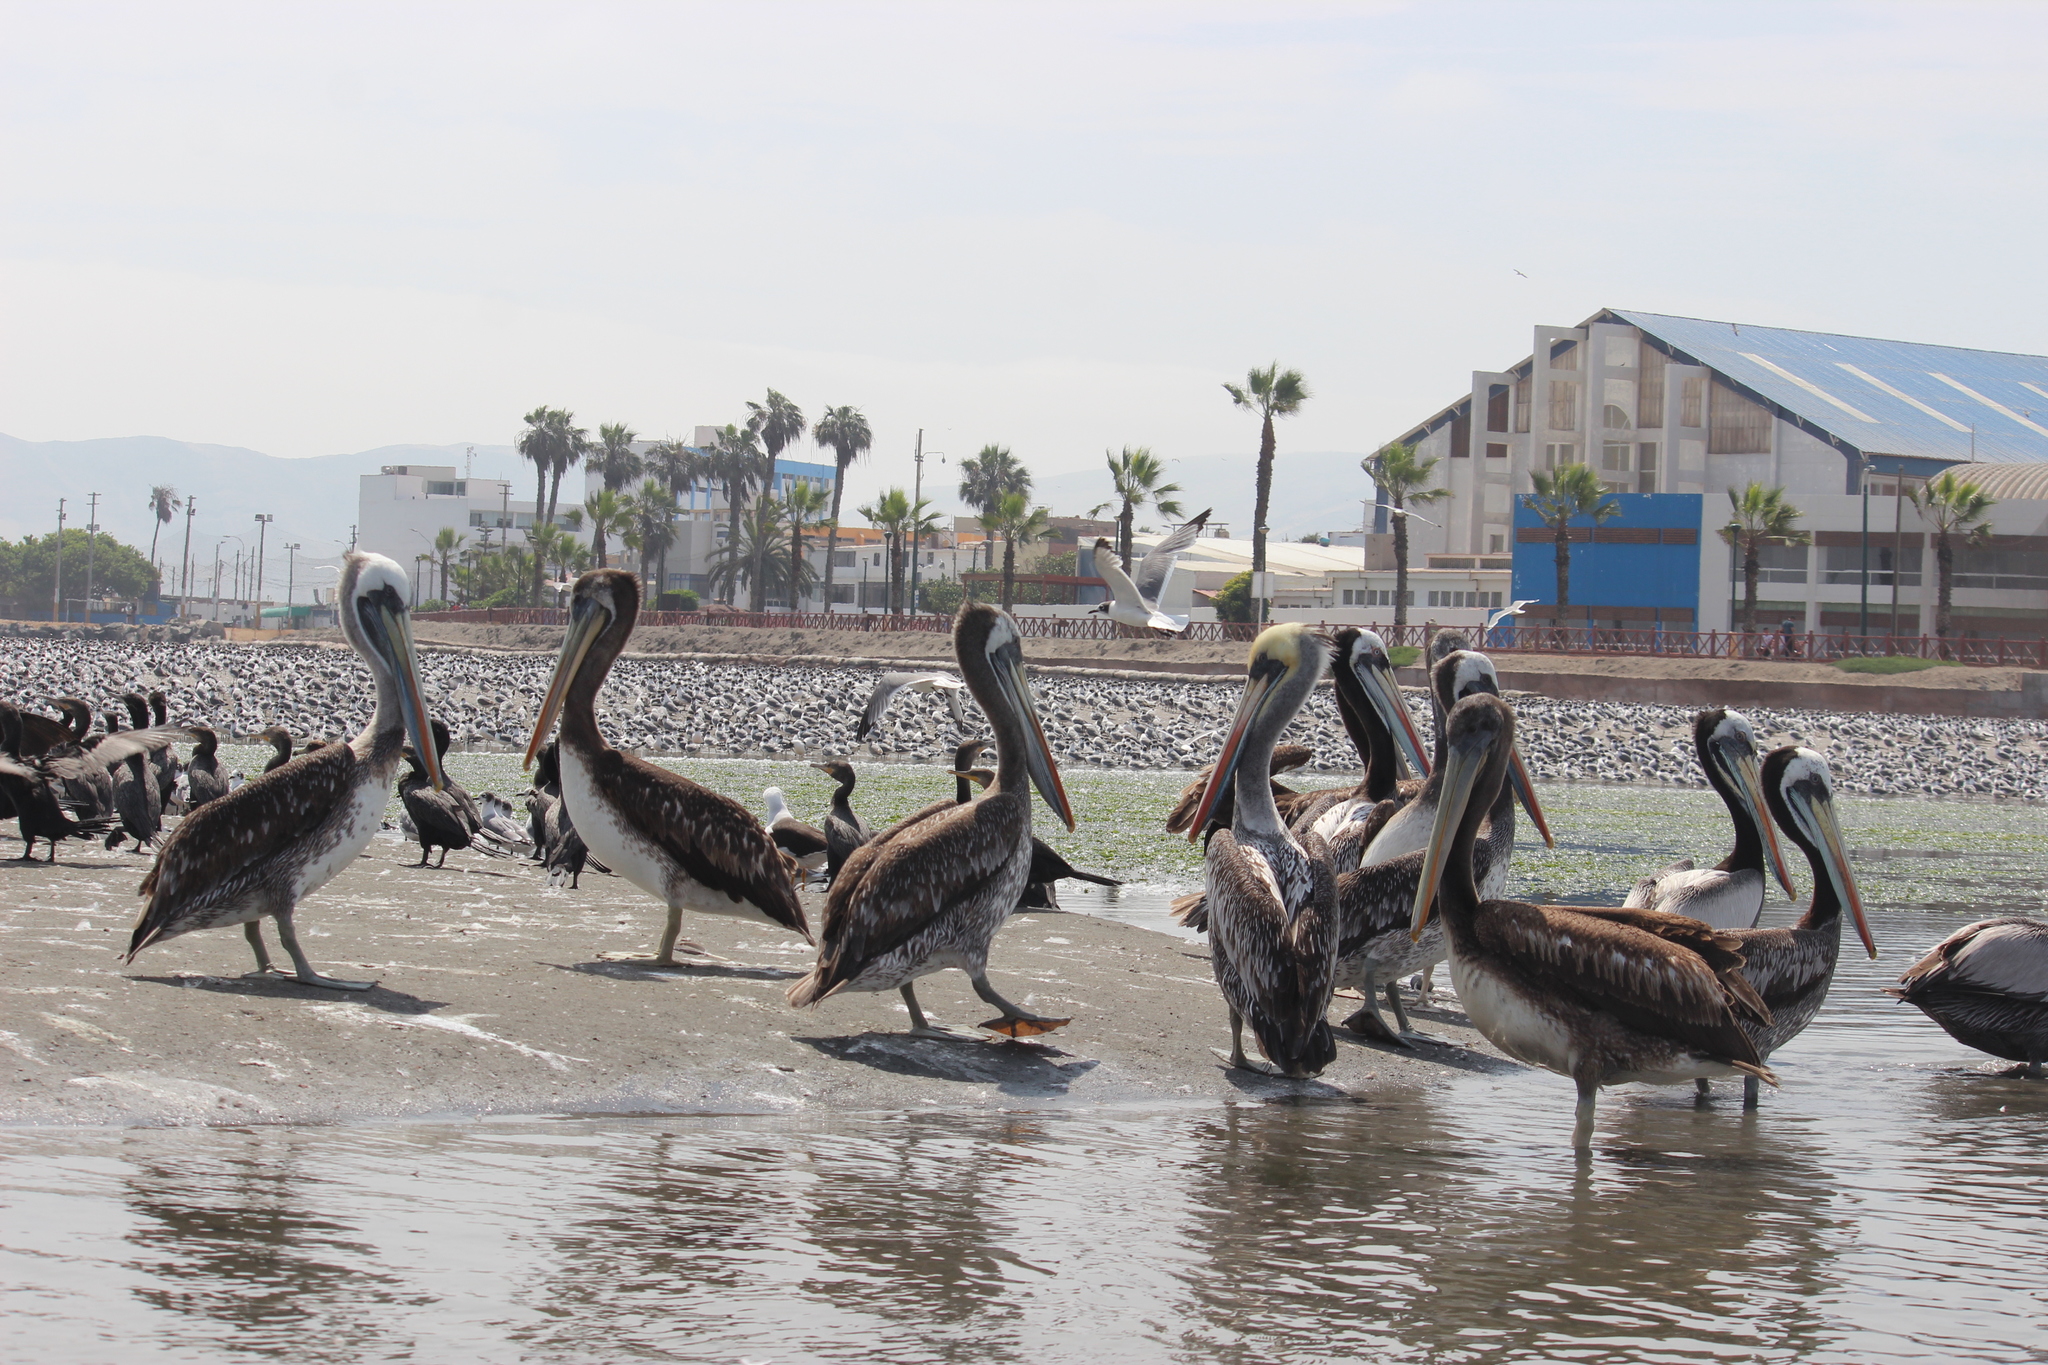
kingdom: Animalia
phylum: Chordata
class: Aves
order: Pelecaniformes
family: Pelecanidae
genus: Pelecanus
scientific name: Pelecanus thagus
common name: Peruvian pelican
